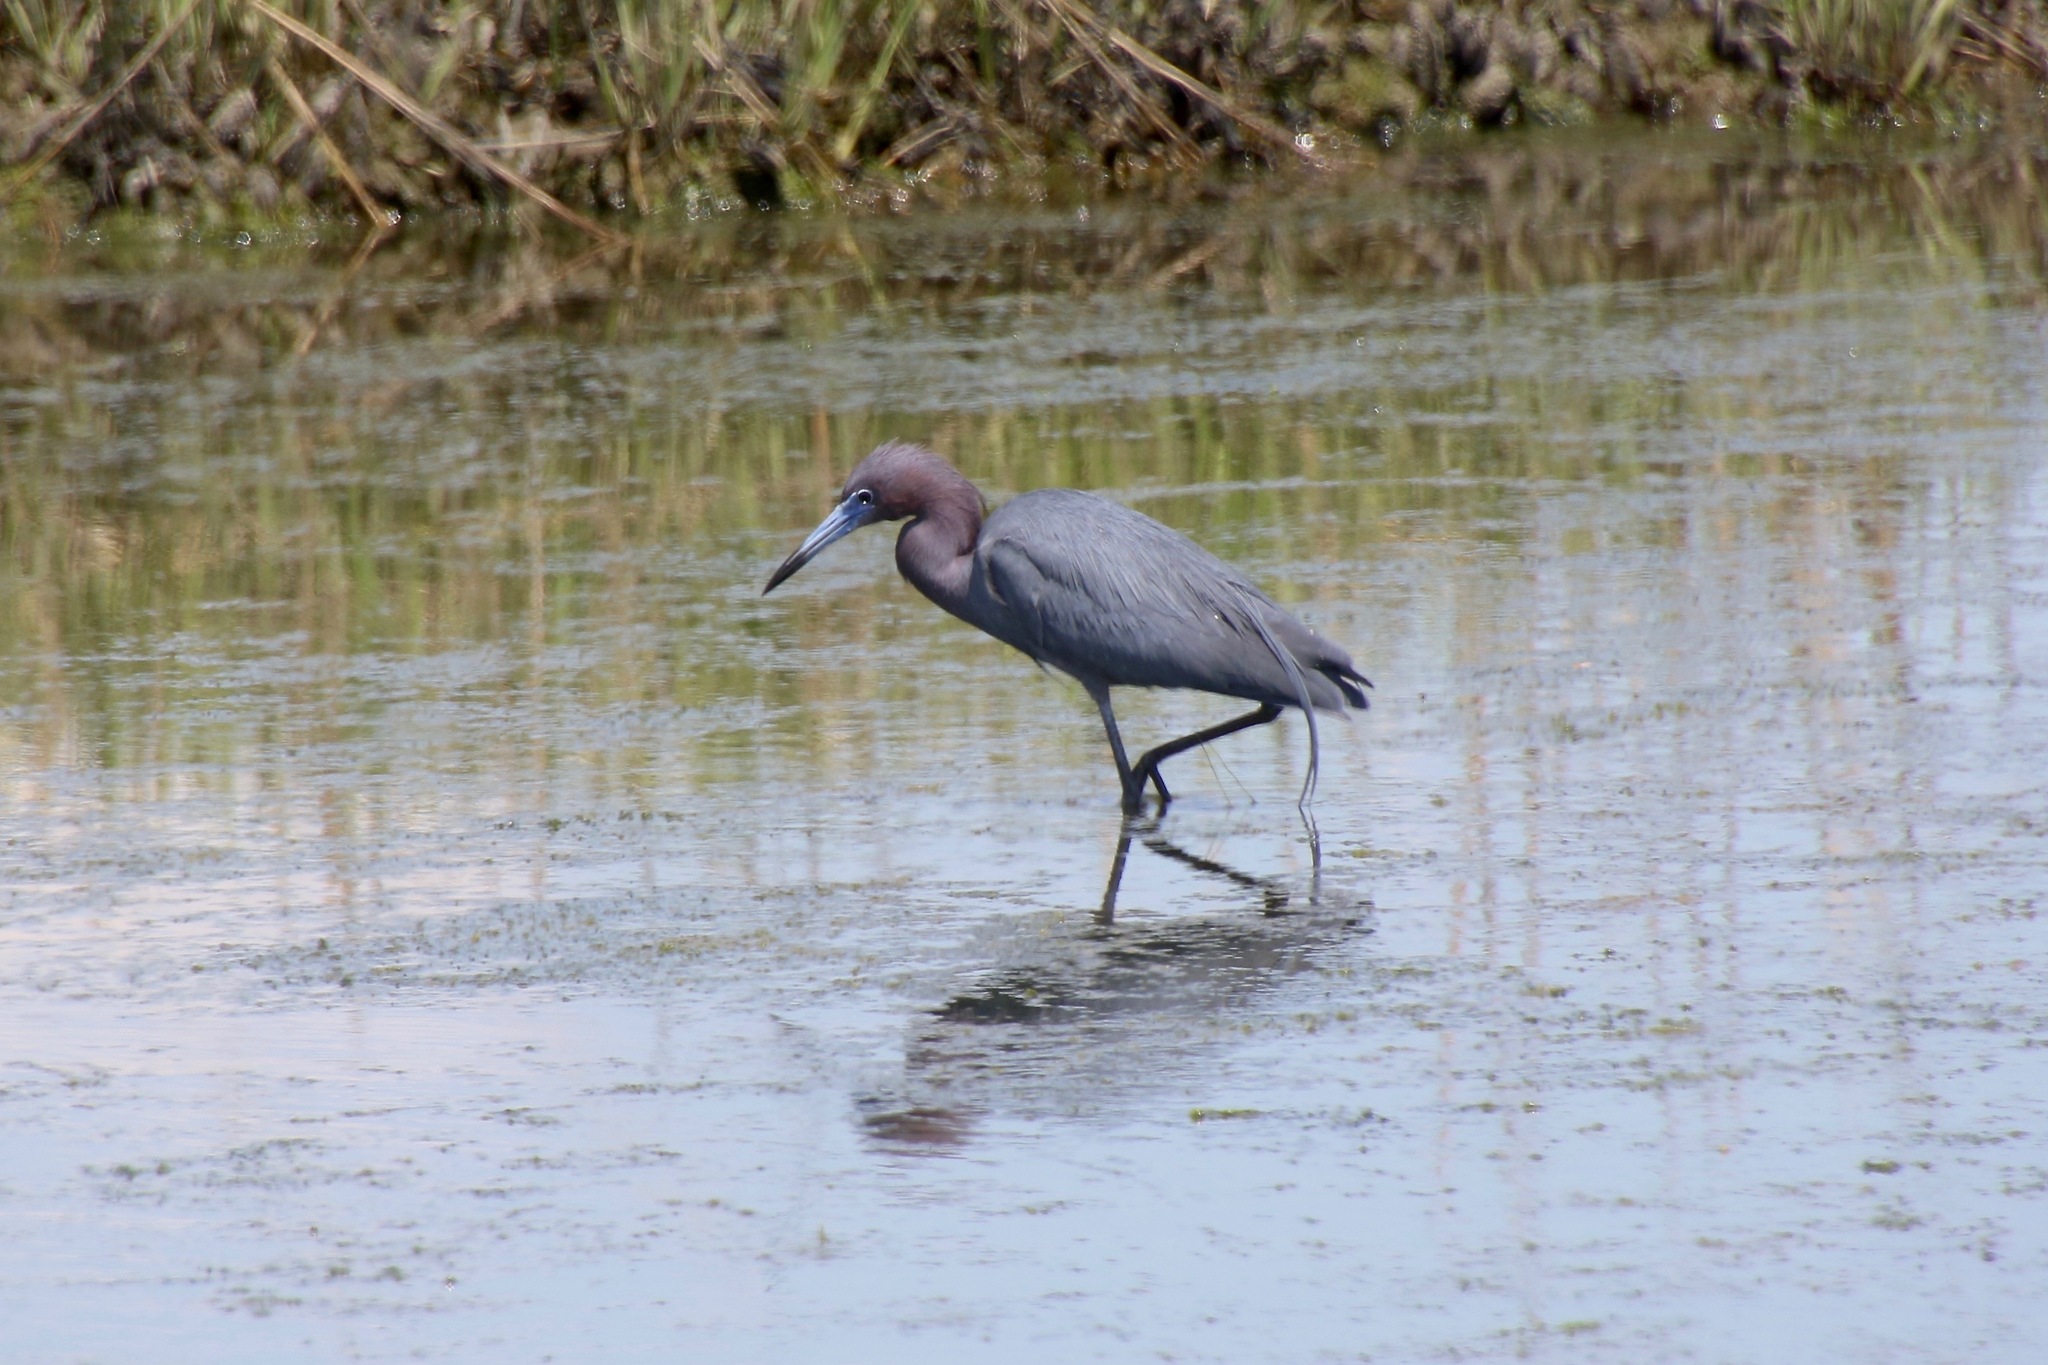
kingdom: Animalia
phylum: Chordata
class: Aves
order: Pelecaniformes
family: Ardeidae
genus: Egretta
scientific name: Egretta caerulea
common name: Little blue heron
